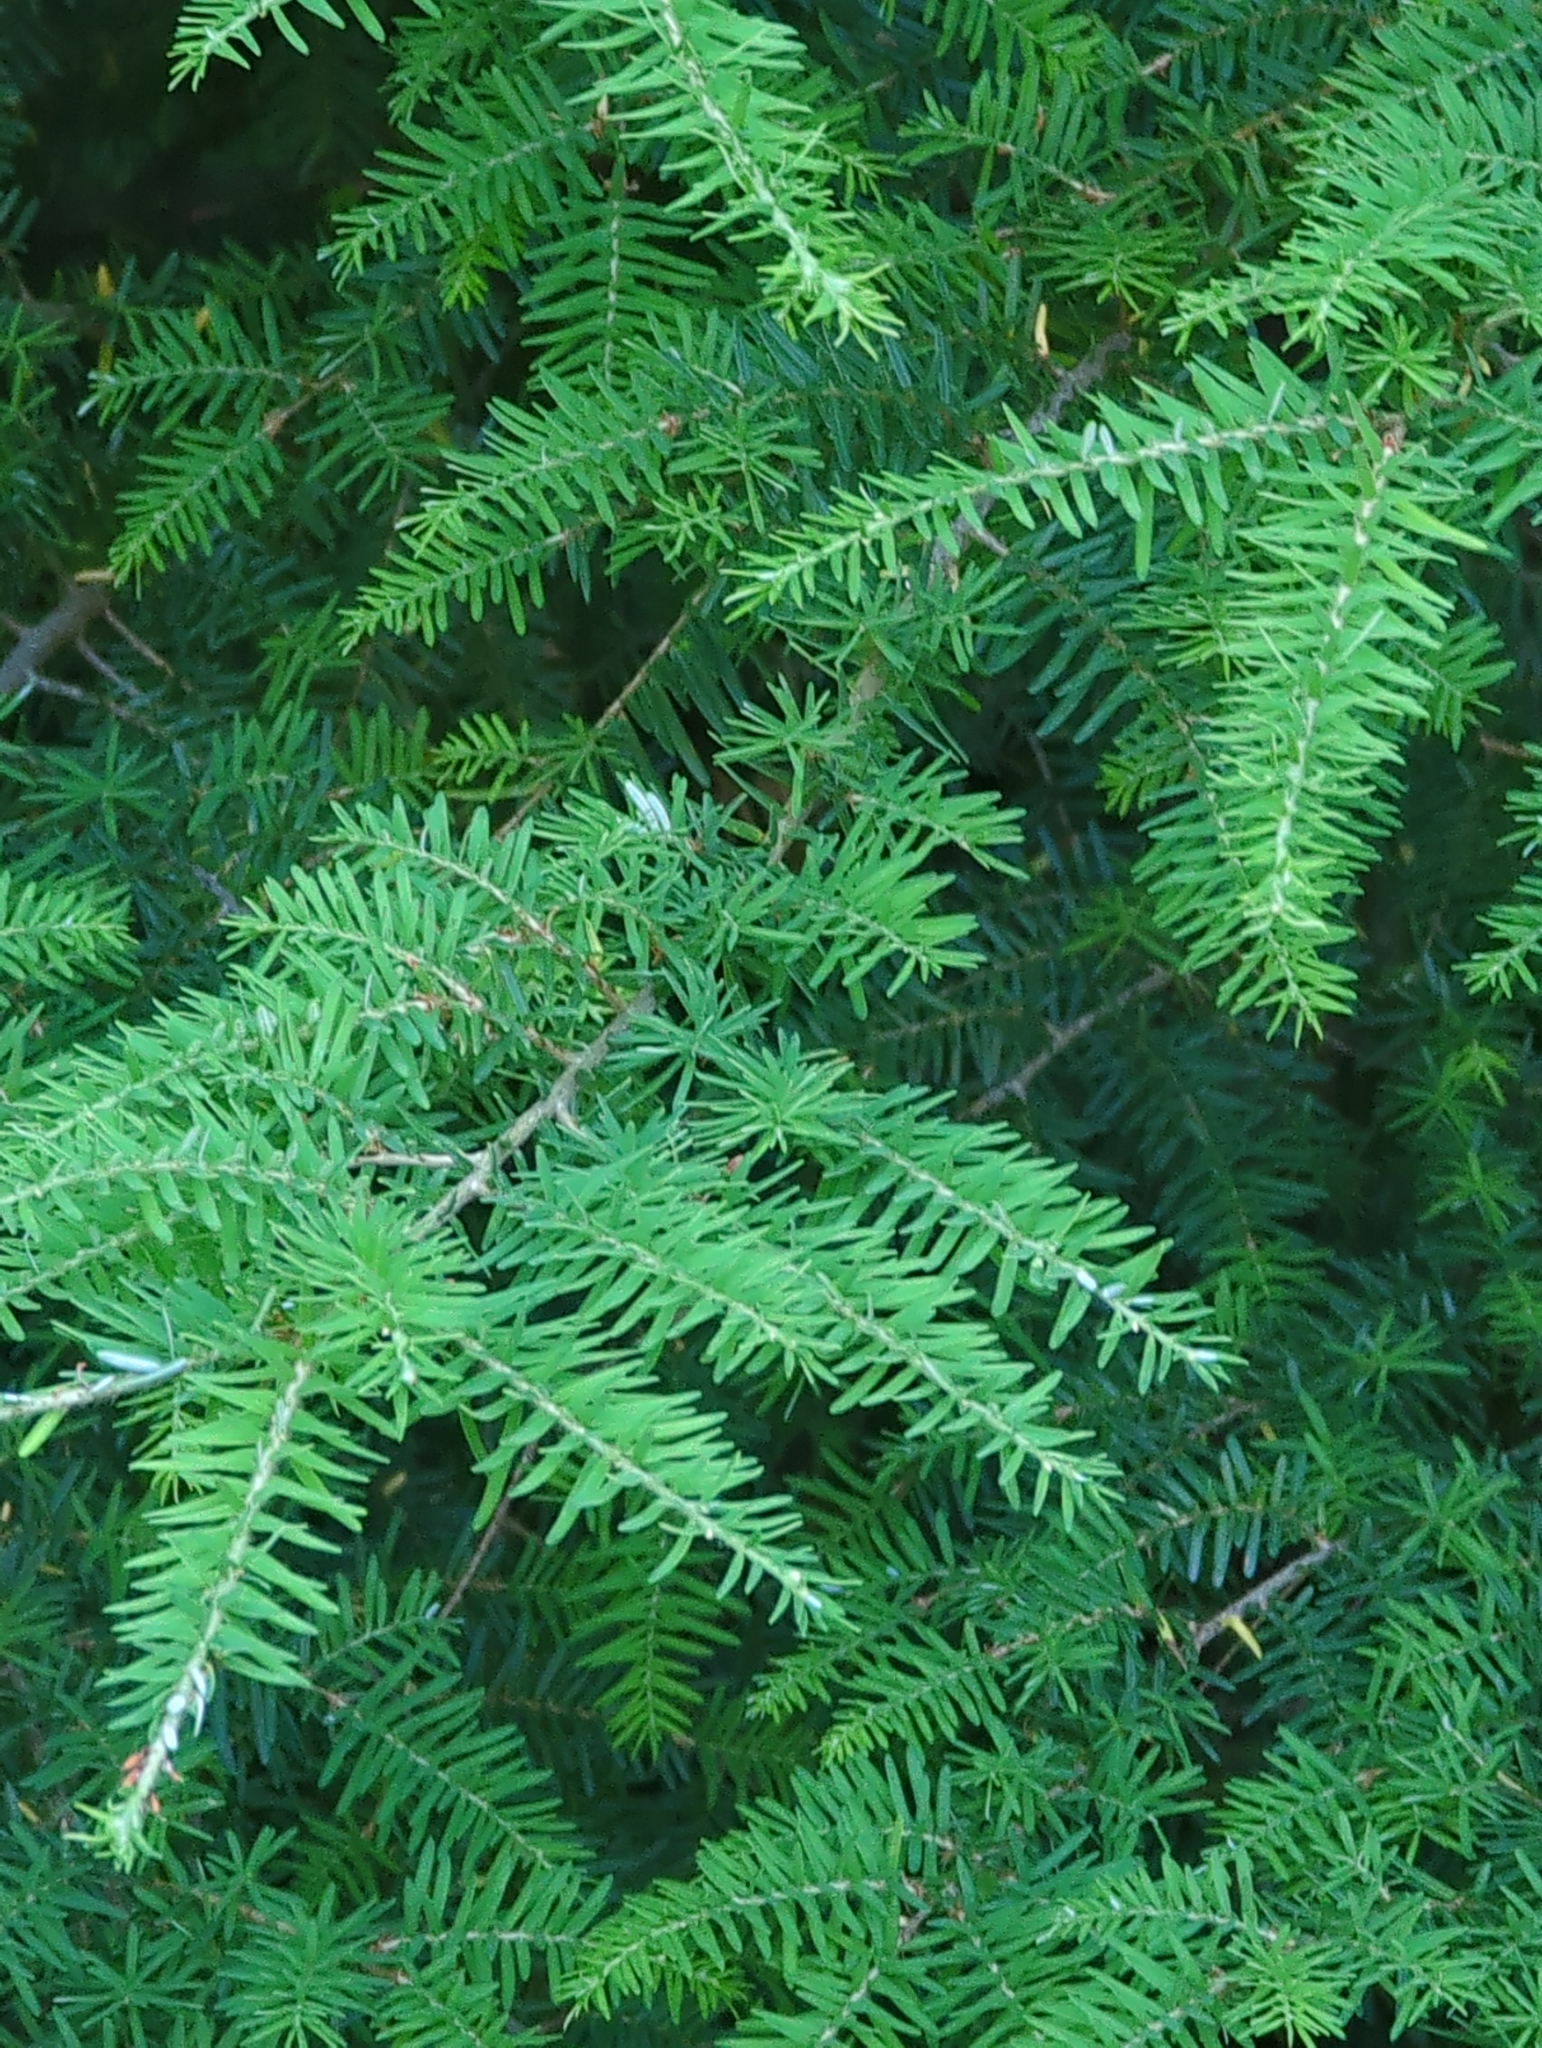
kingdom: Plantae
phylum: Tracheophyta
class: Pinopsida
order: Pinales
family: Pinaceae
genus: Tsuga
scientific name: Tsuga heterophylla
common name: Western hemlock
